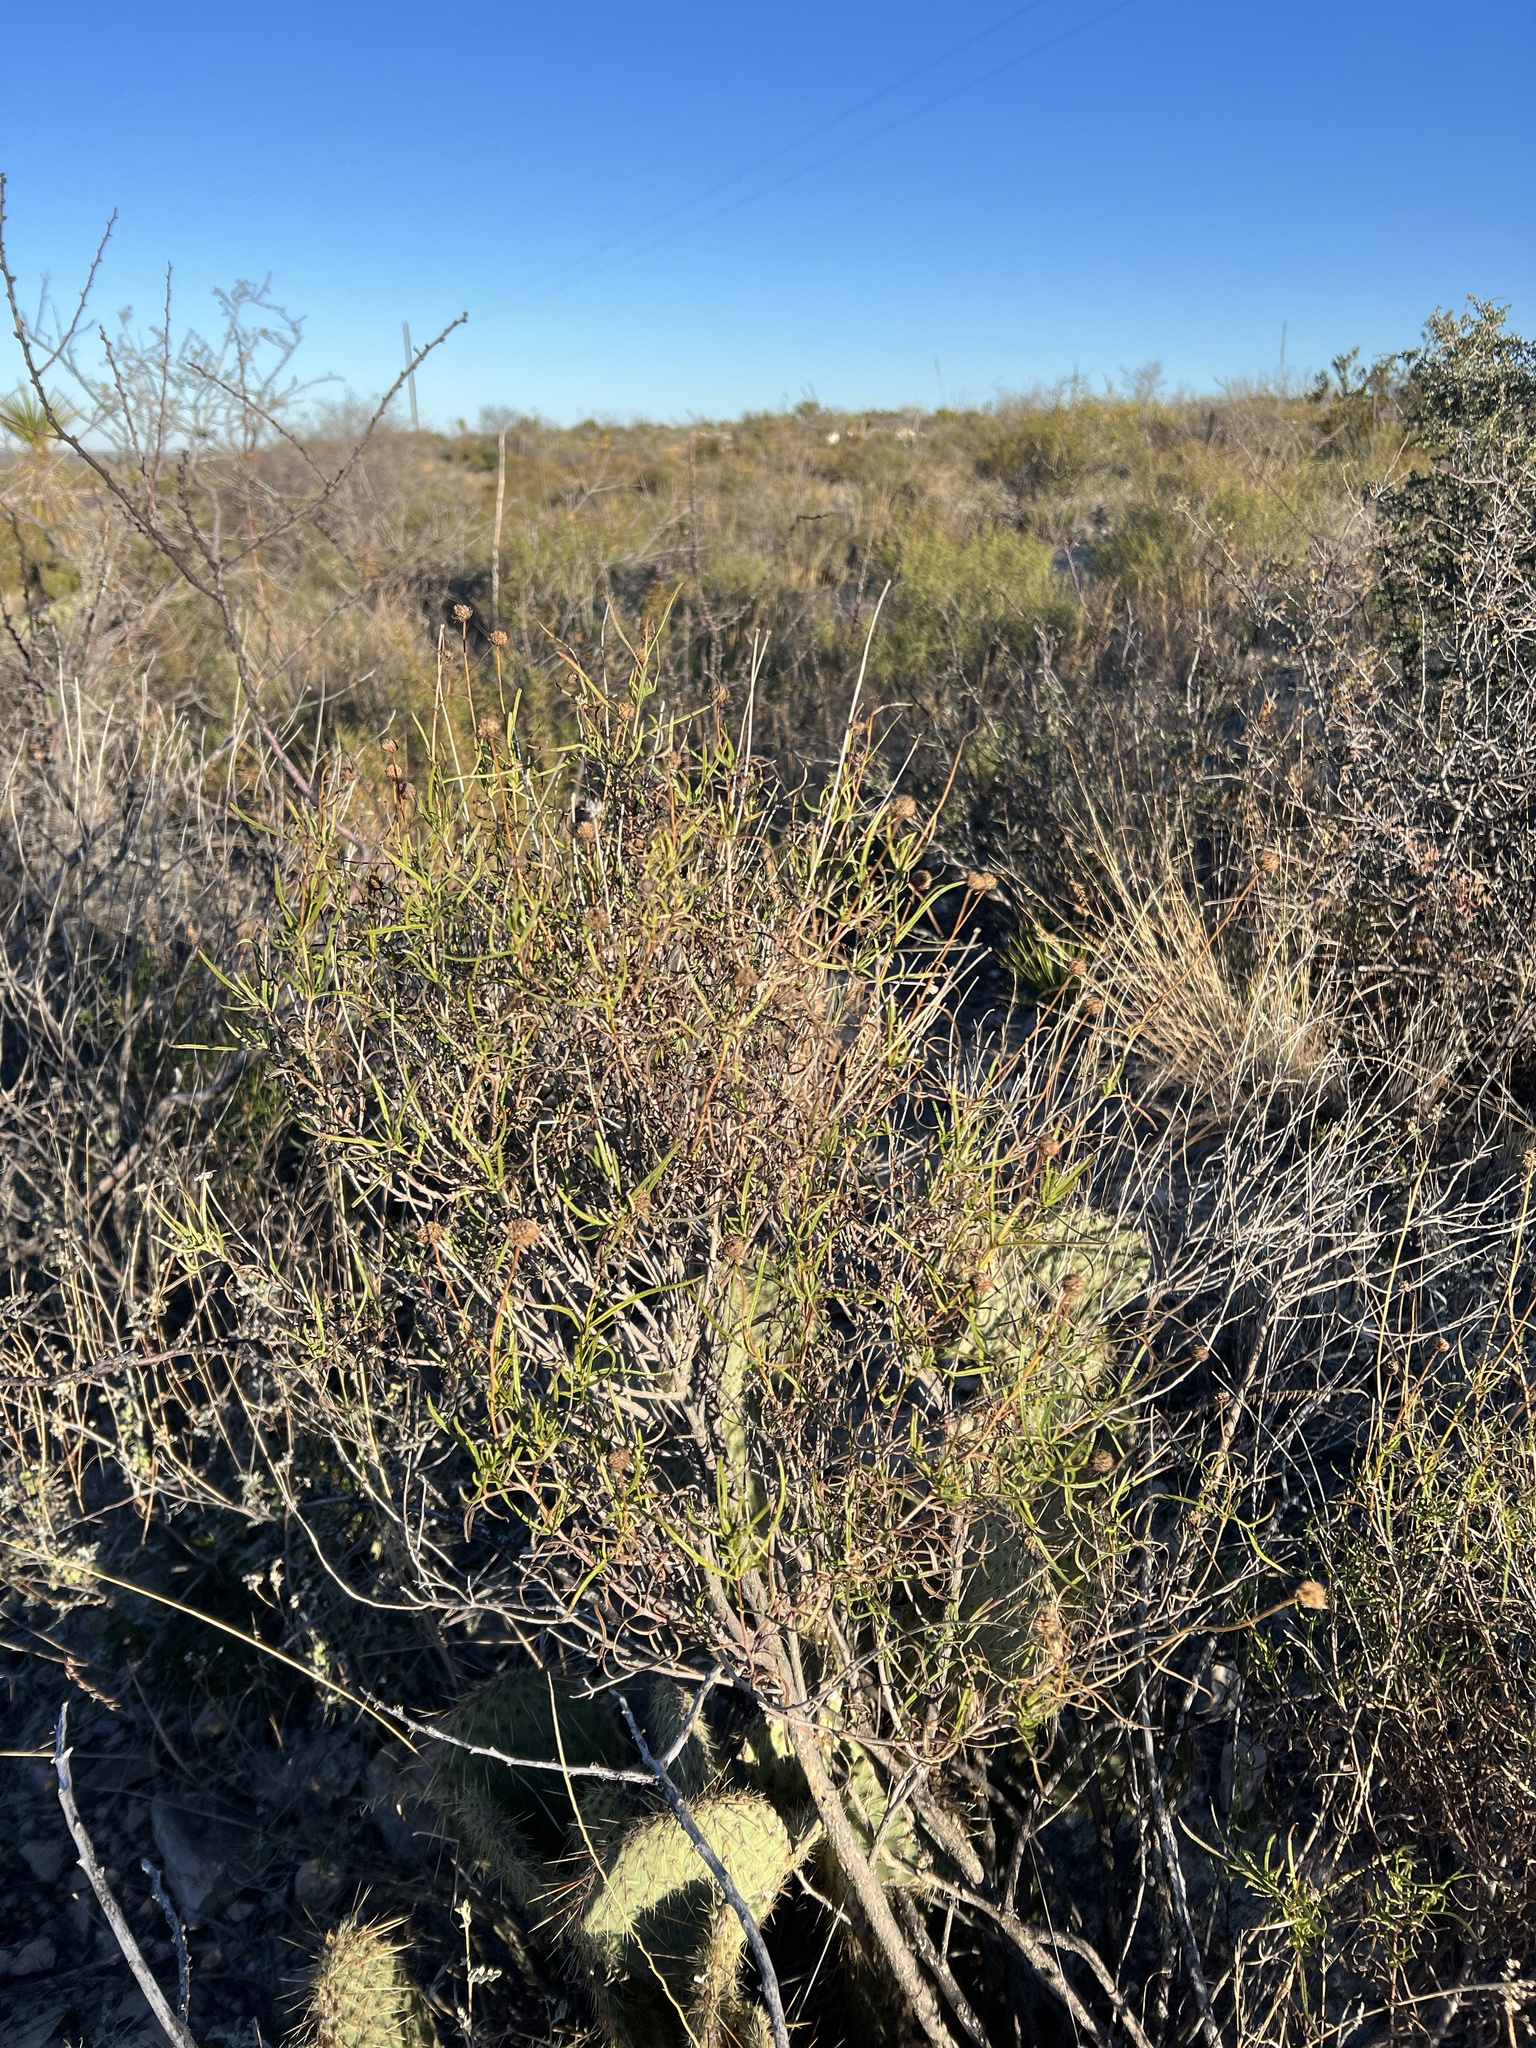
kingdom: Plantae
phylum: Tracheophyta
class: Magnoliopsida
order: Asterales
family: Asteraceae
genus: Sidneya
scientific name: Sidneya tenuifolia
